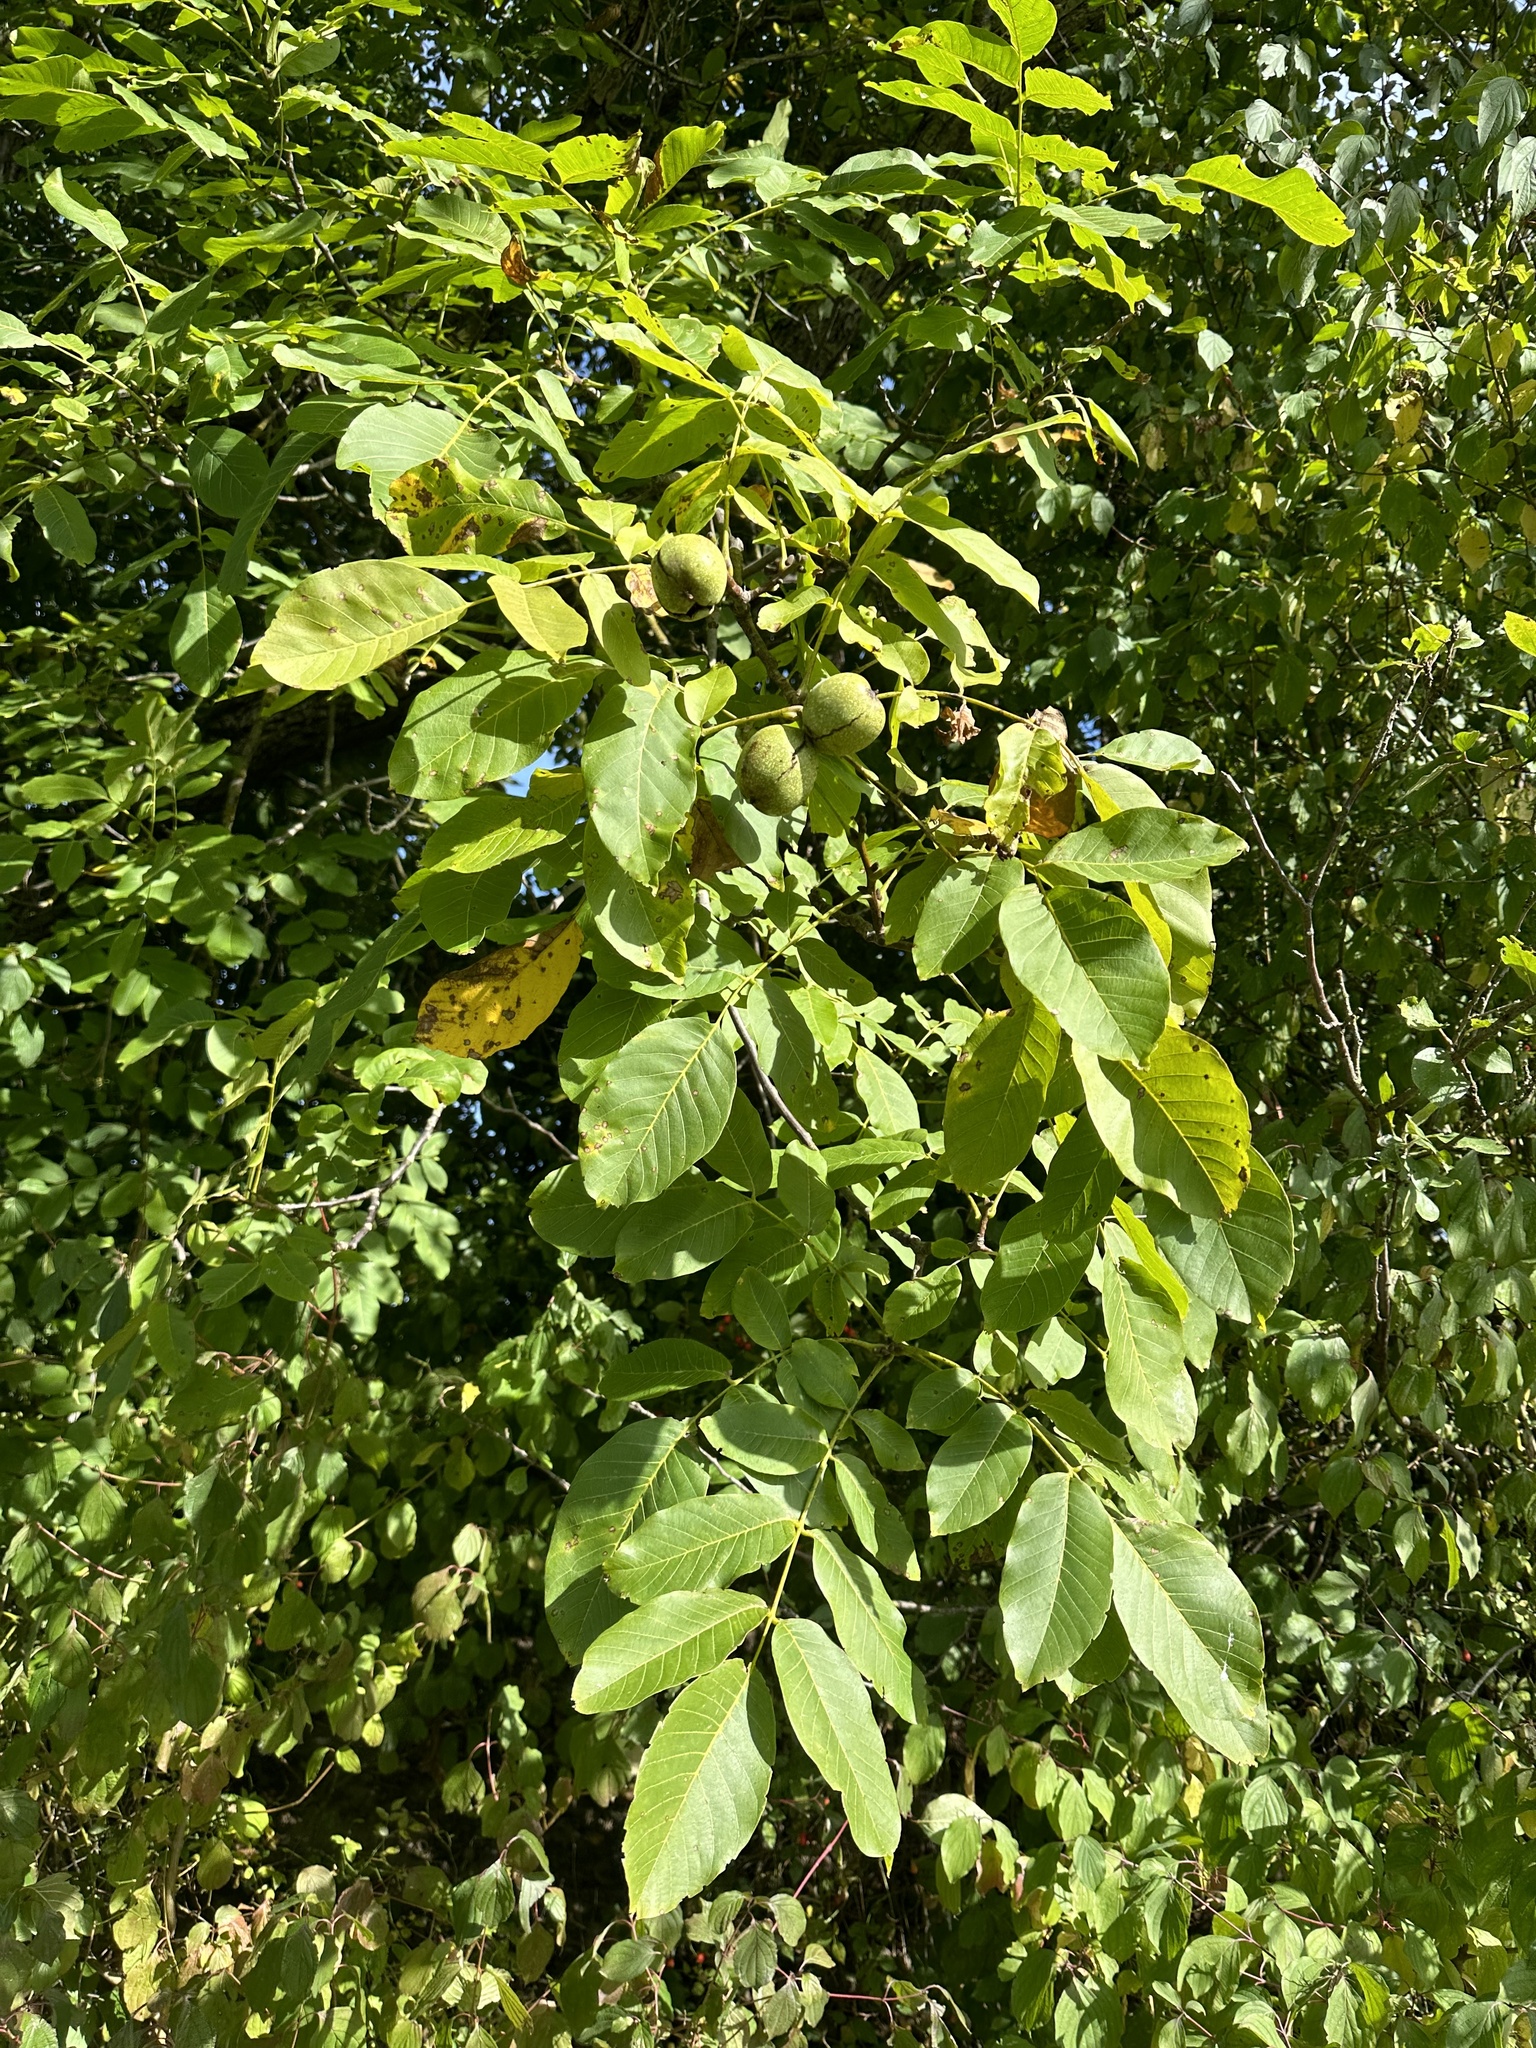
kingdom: Plantae
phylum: Tracheophyta
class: Magnoliopsida
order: Fagales
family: Juglandaceae
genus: Juglans
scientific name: Juglans regia
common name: Walnut
